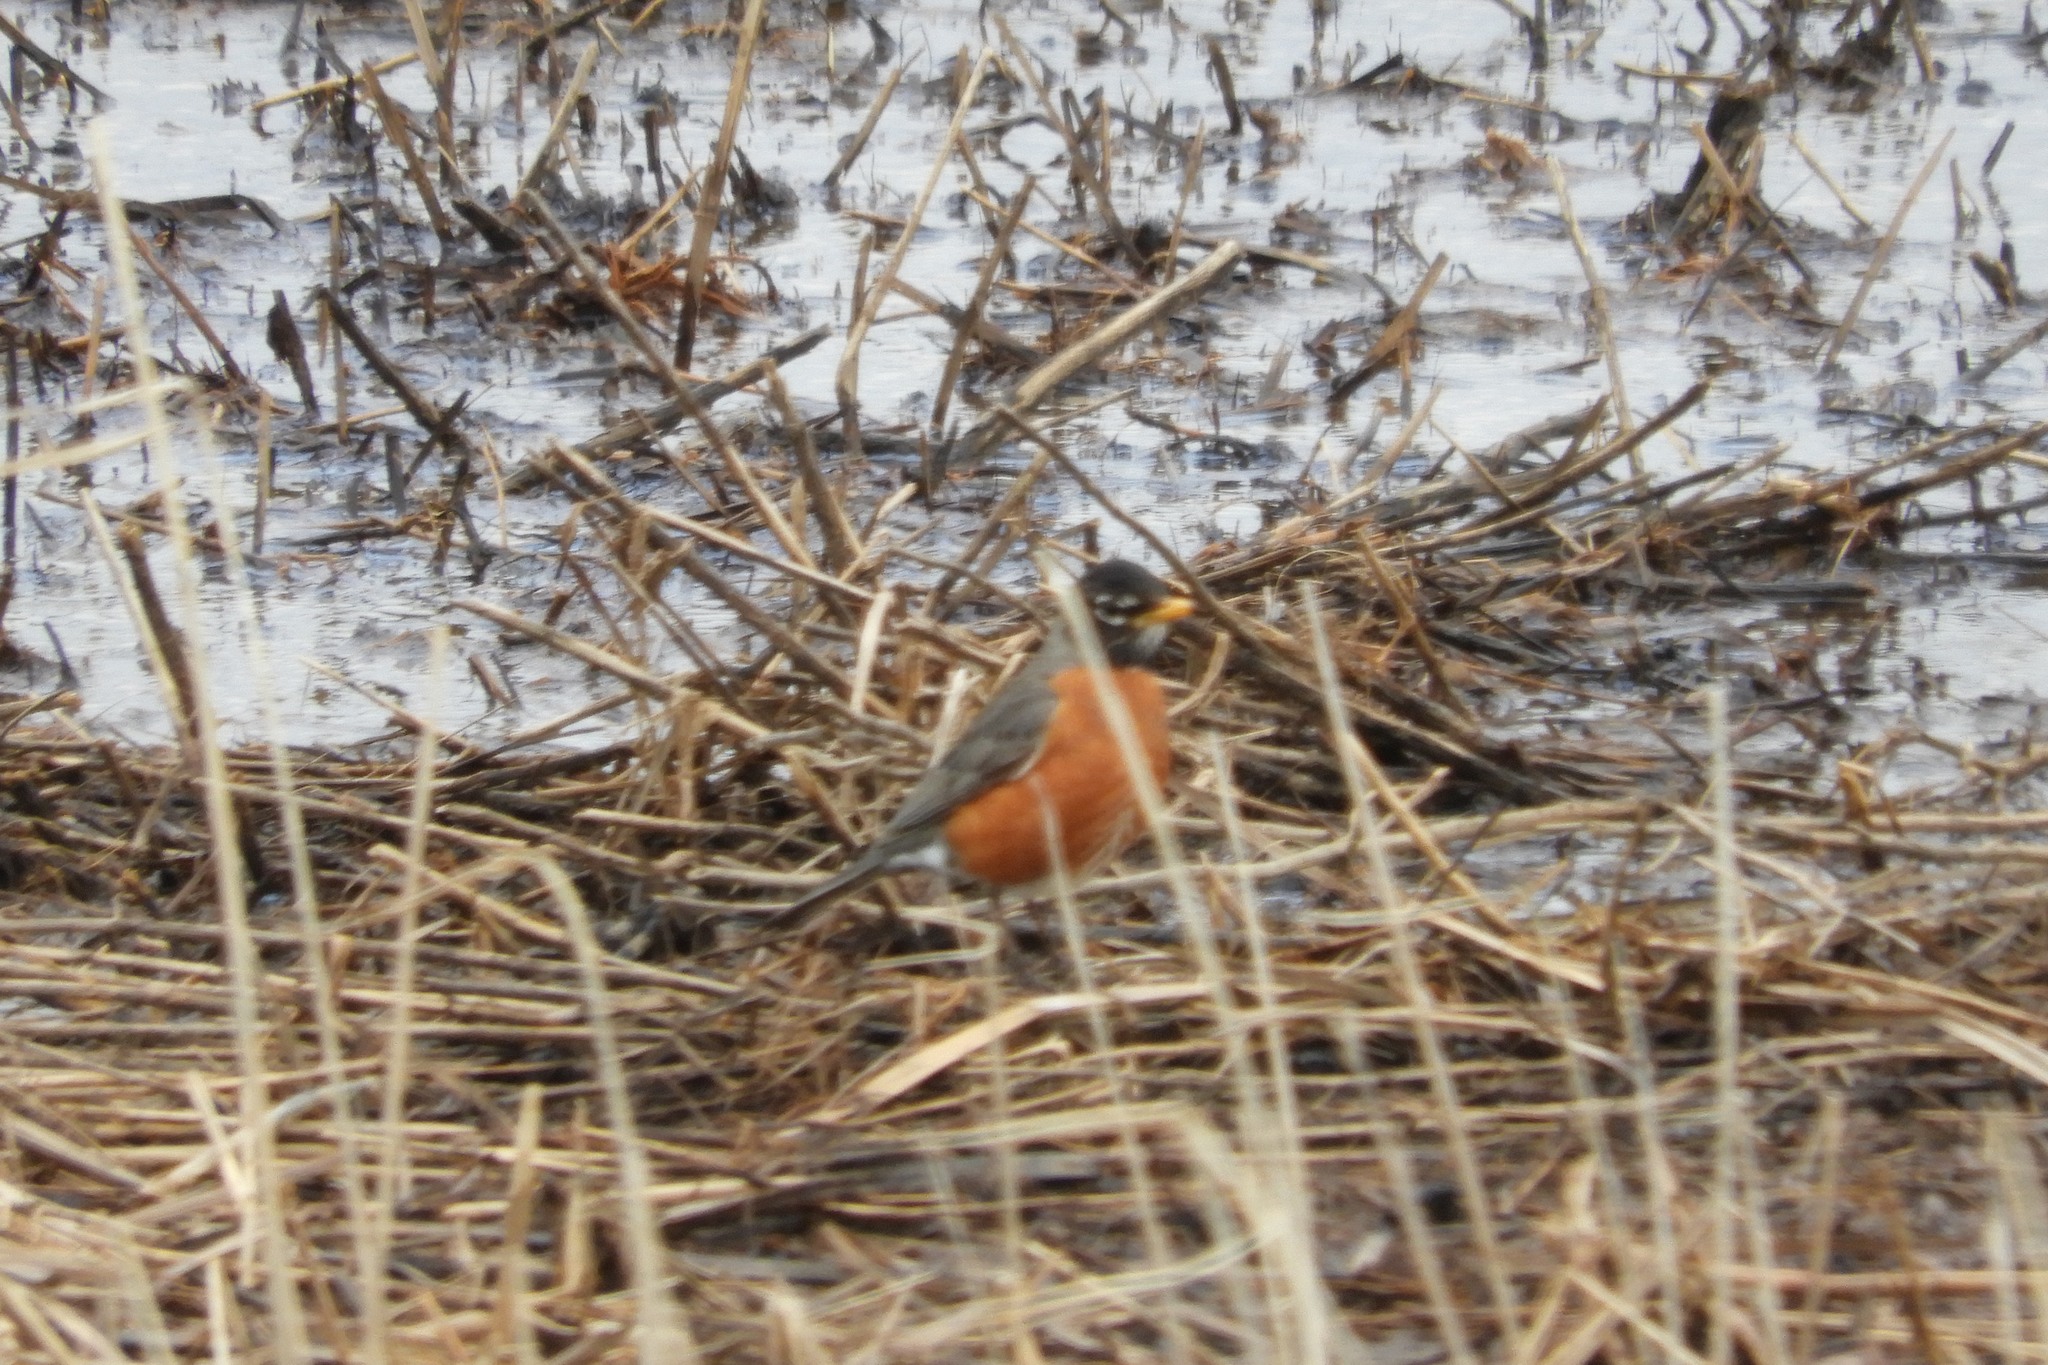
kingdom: Animalia
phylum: Chordata
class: Aves
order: Passeriformes
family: Turdidae
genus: Turdus
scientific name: Turdus migratorius
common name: American robin
